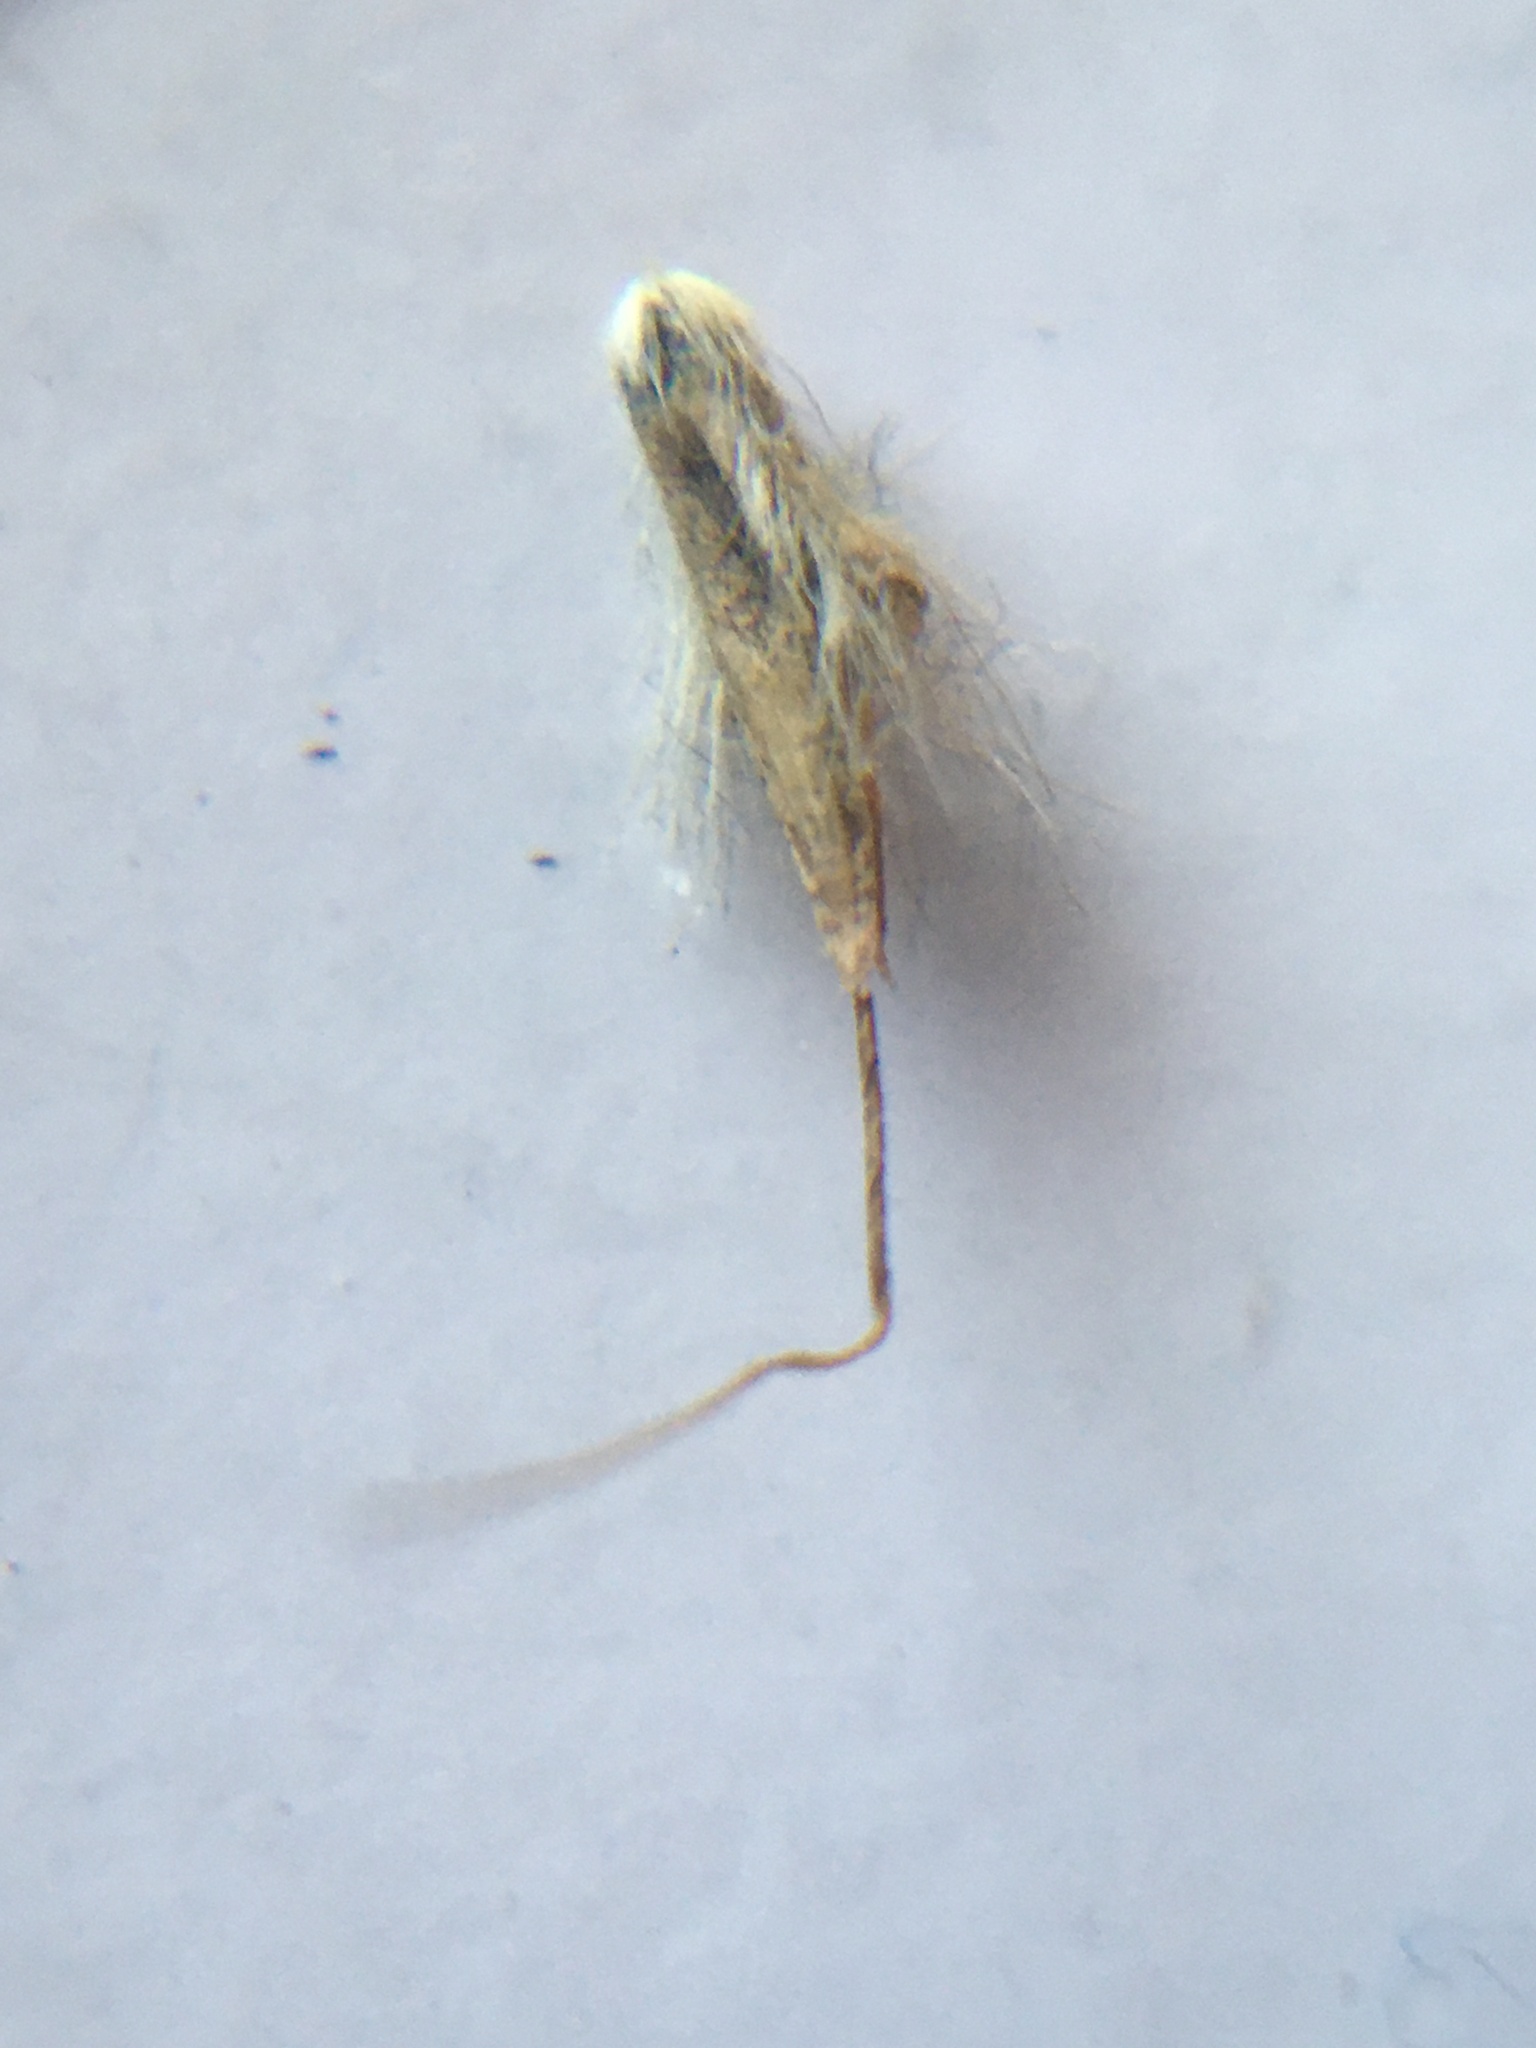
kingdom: Plantae
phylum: Tracheophyta
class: Liliopsida
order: Poales
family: Poaceae
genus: Cymbopogon
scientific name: Cymbopogon pospischilii
